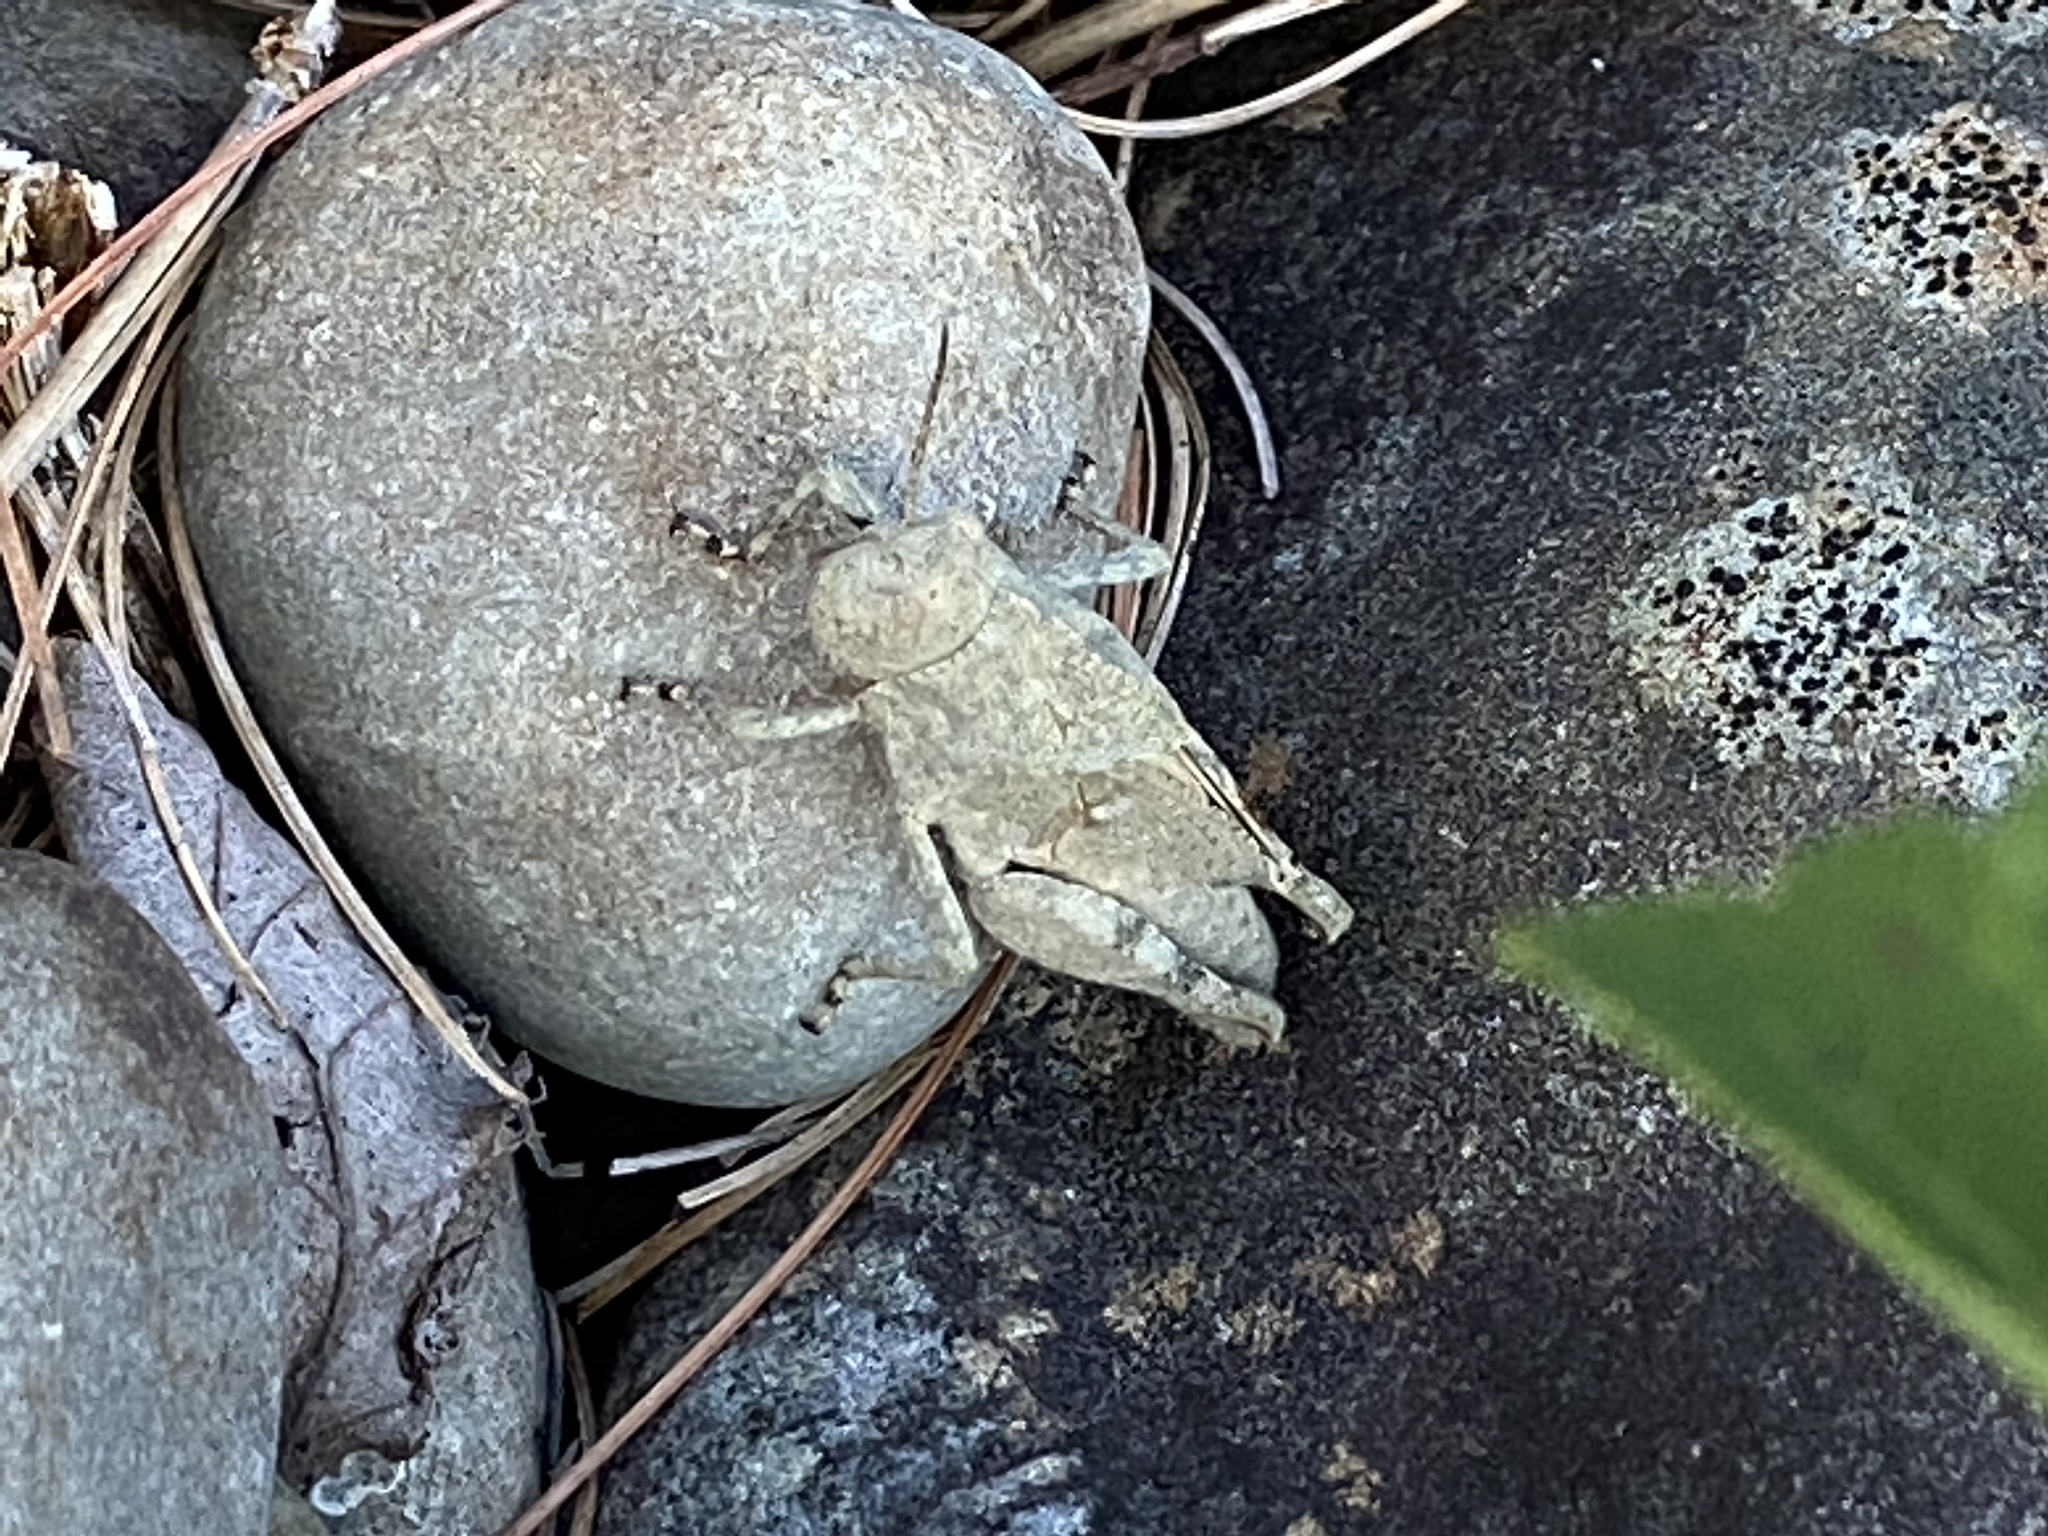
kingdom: Animalia
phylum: Arthropoda
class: Insecta
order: Orthoptera
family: Acrididae
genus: Dissosteira
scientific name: Dissosteira carolina
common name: Carolina grasshopper
